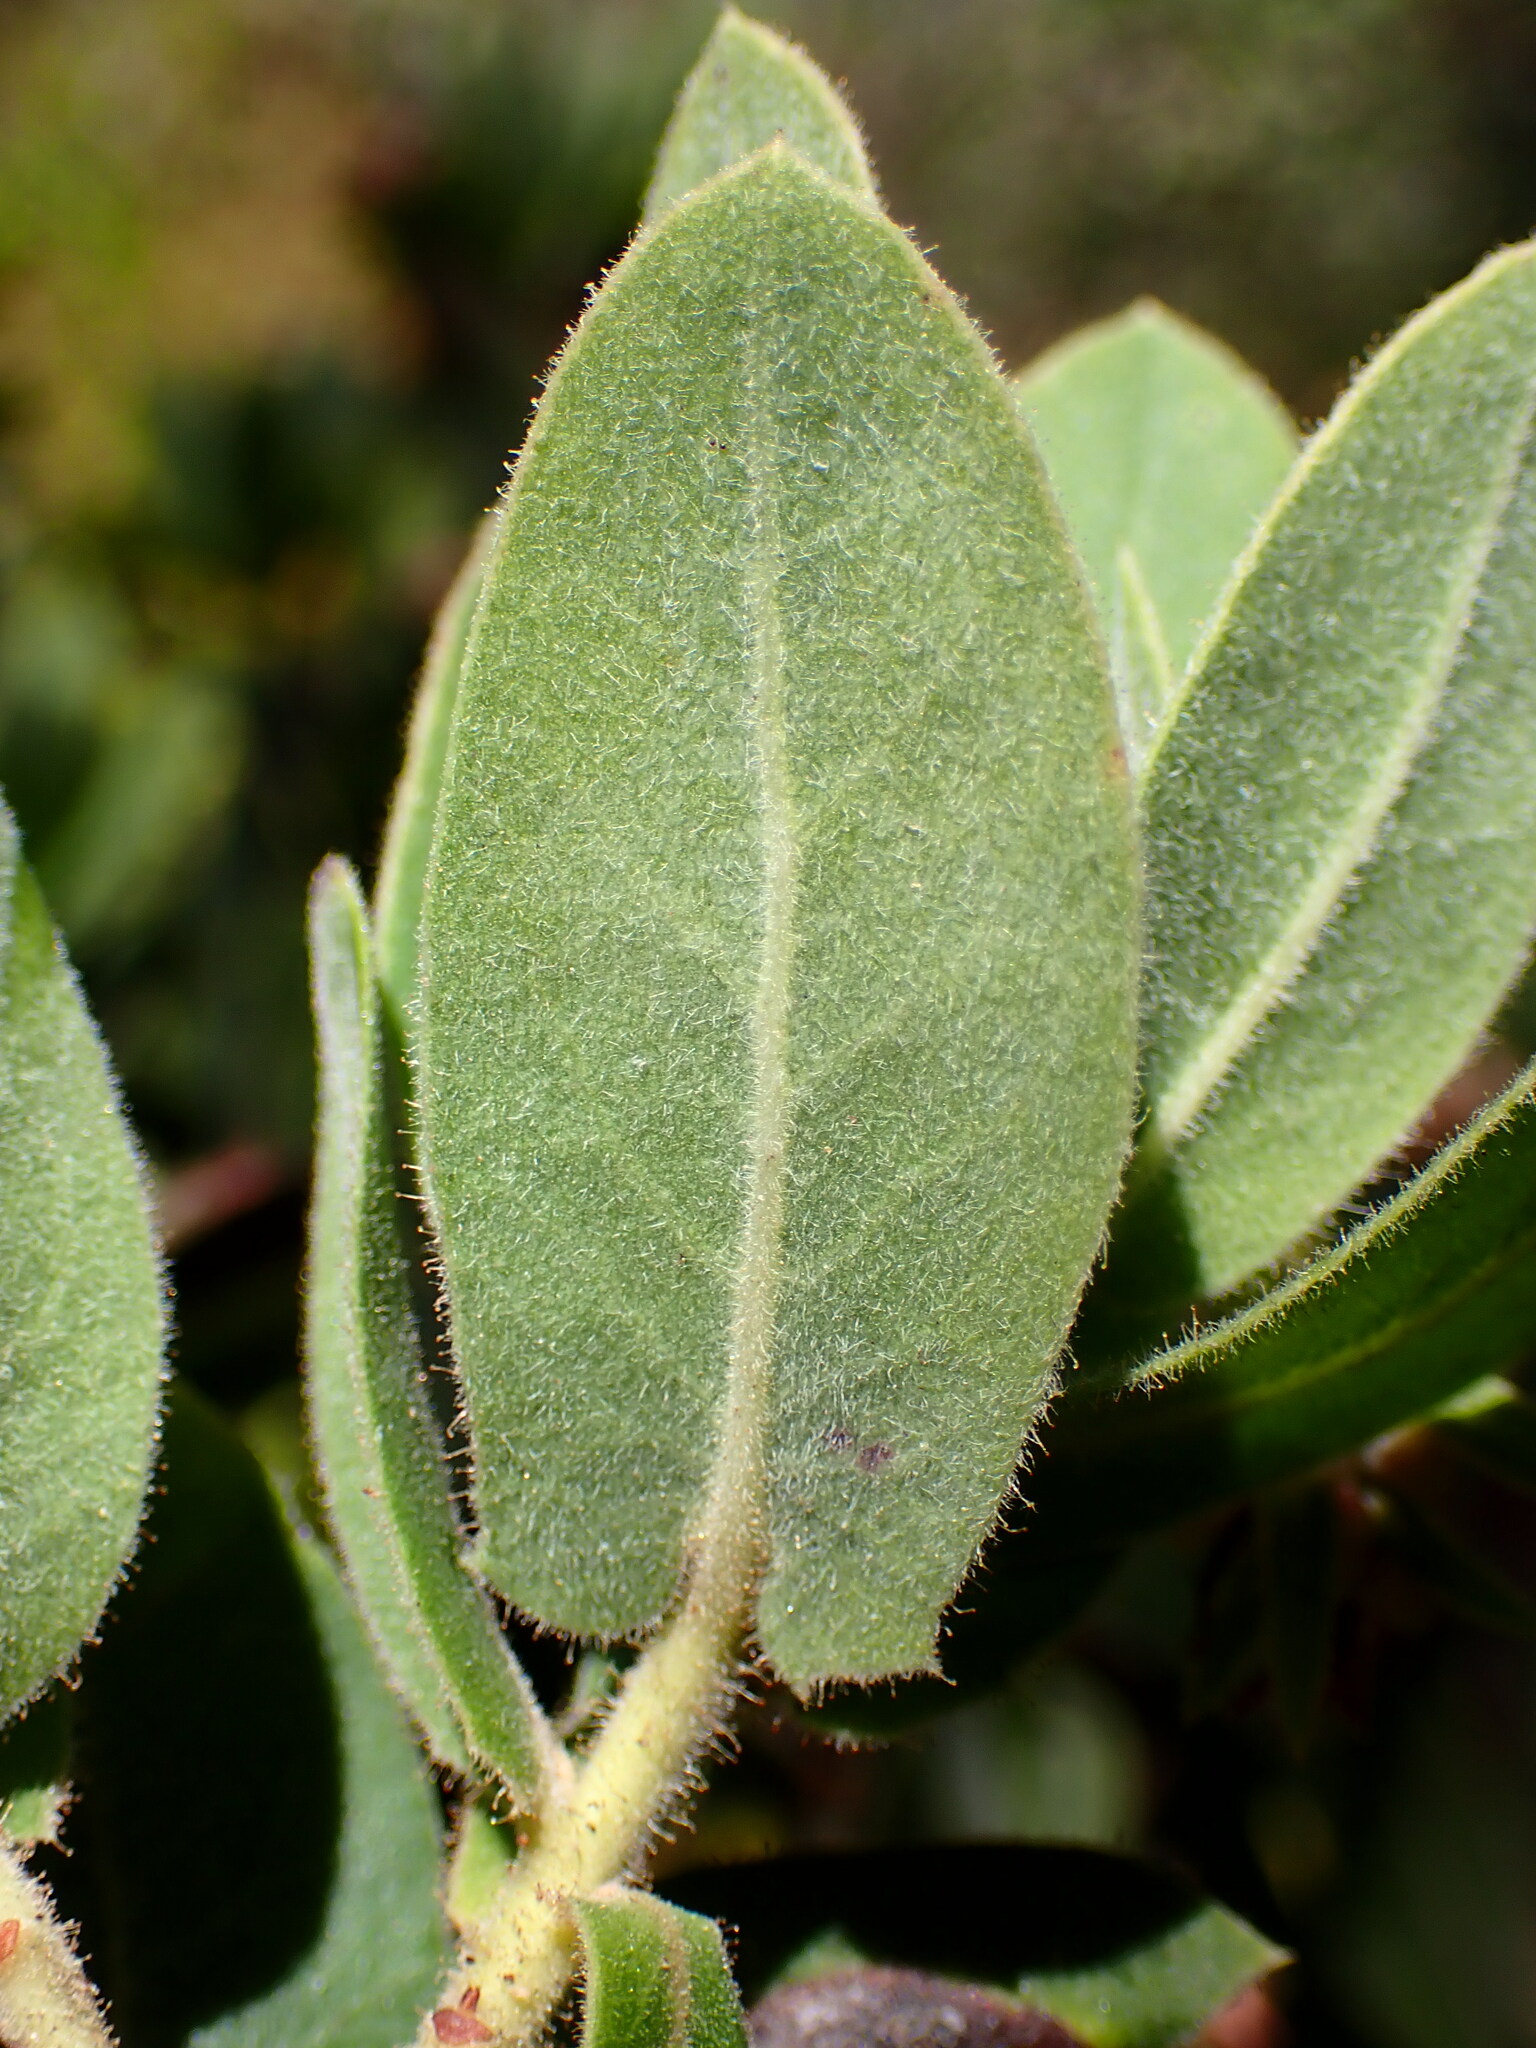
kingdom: Plantae
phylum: Tracheophyta
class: Magnoliopsida
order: Ericales
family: Ericaceae
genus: Arctostaphylos
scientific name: Arctostaphylos regismontana
